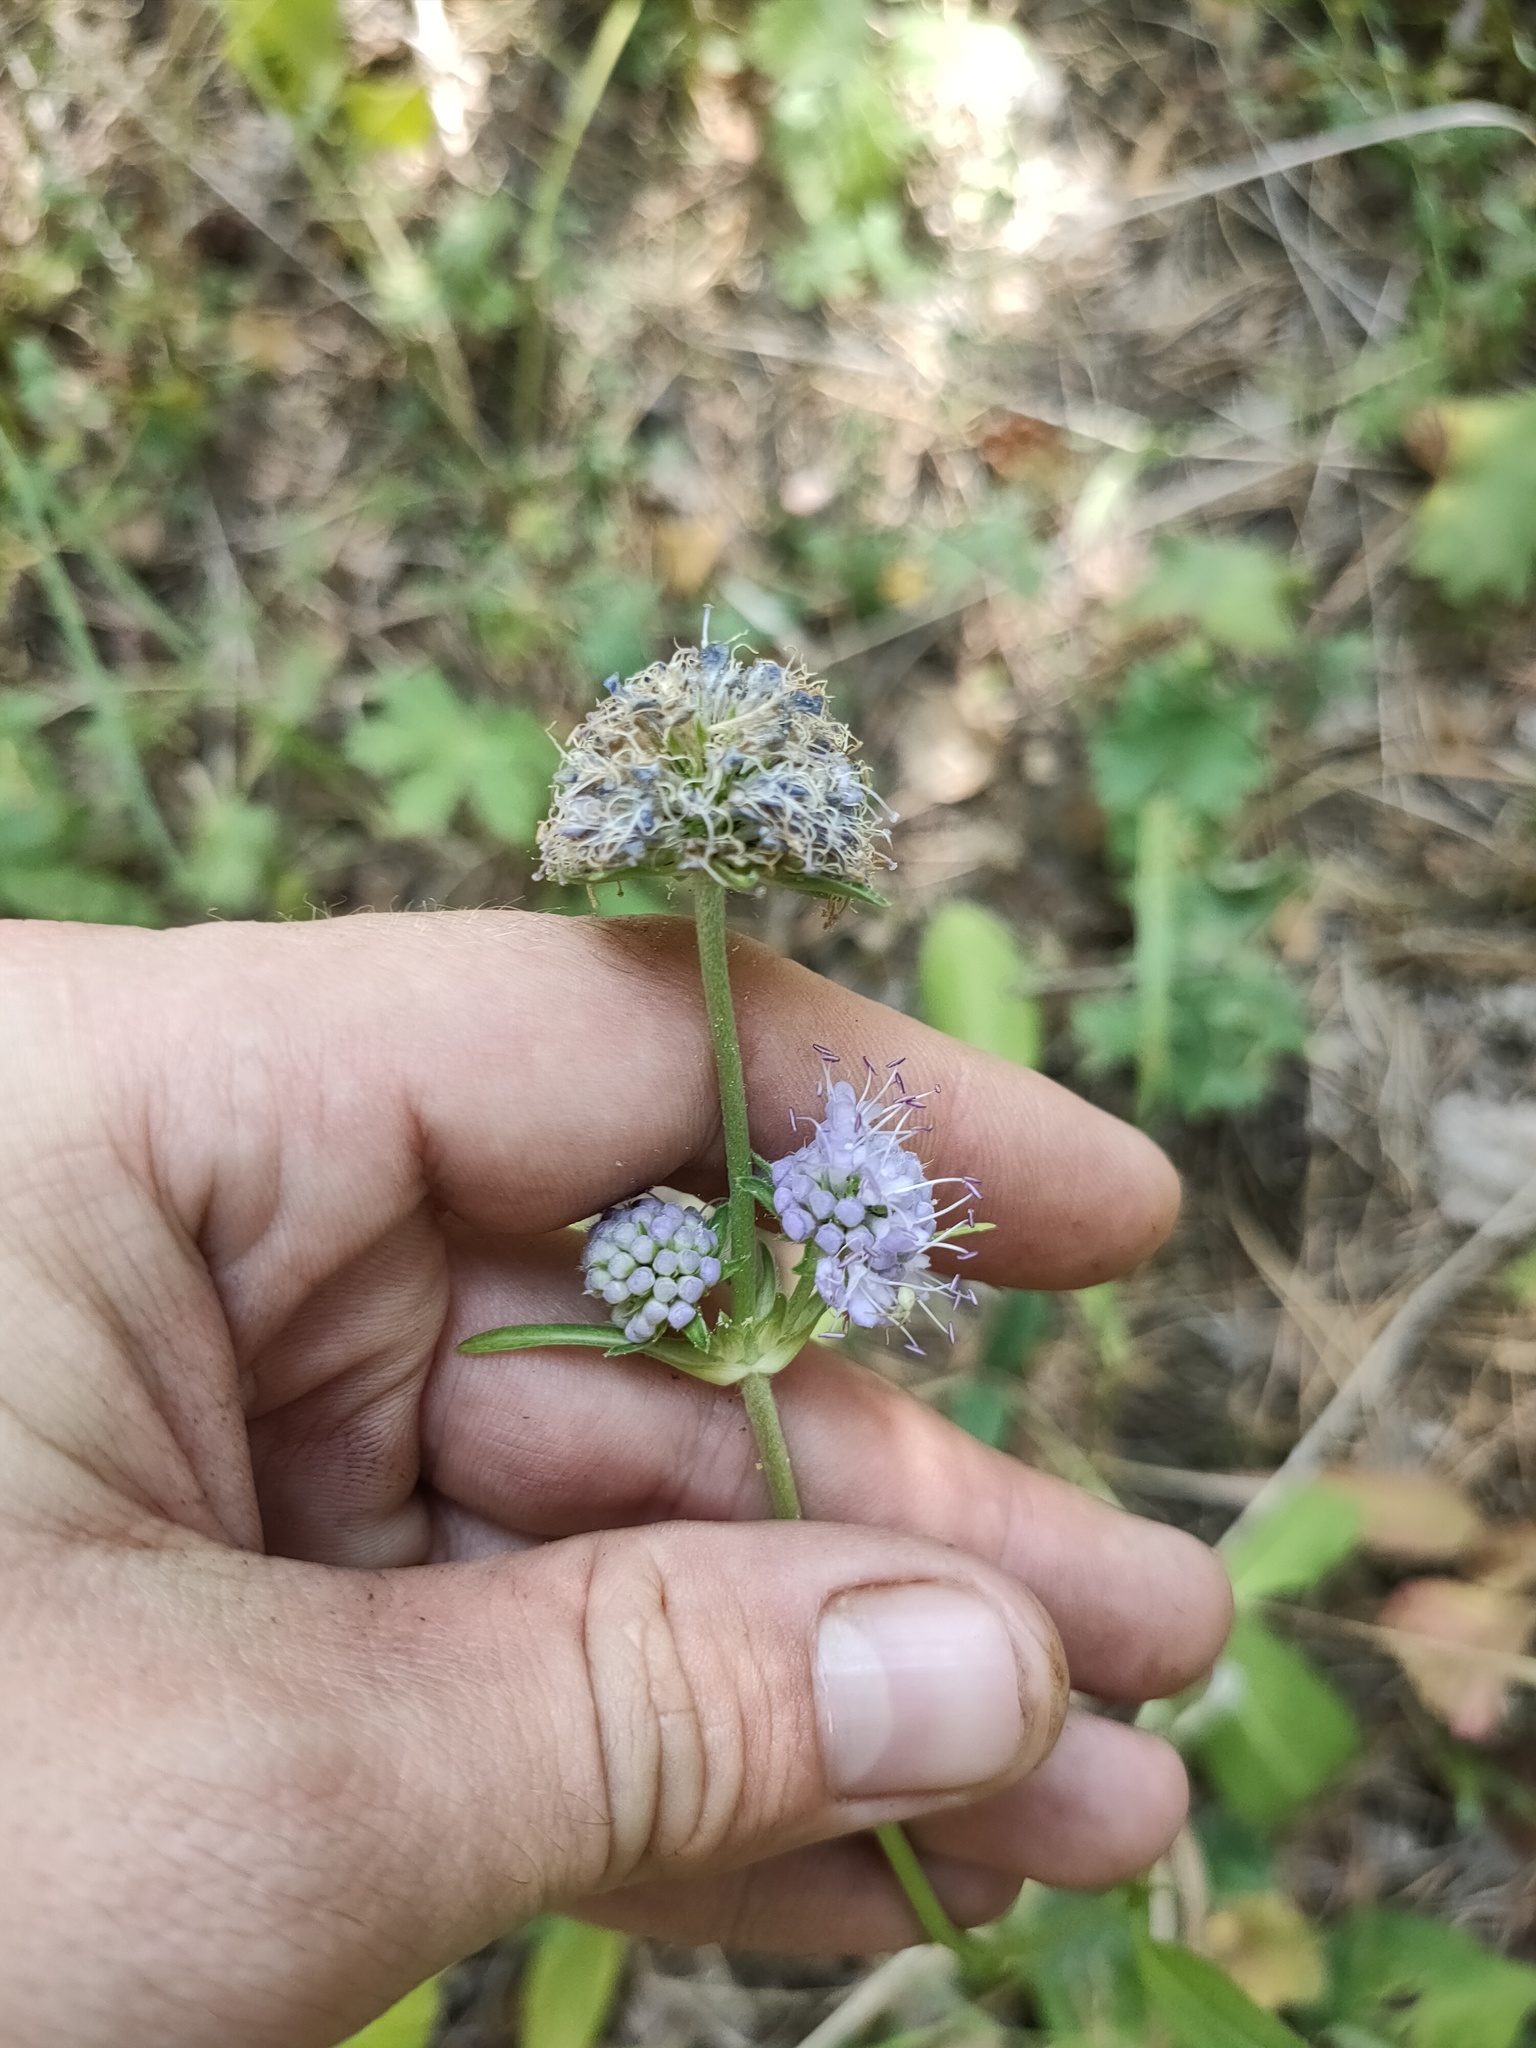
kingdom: Plantae
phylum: Tracheophyta
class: Magnoliopsida
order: Dipsacales
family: Caprifoliaceae
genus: Succisa
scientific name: Succisa pratensis
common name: Devil's-bit
